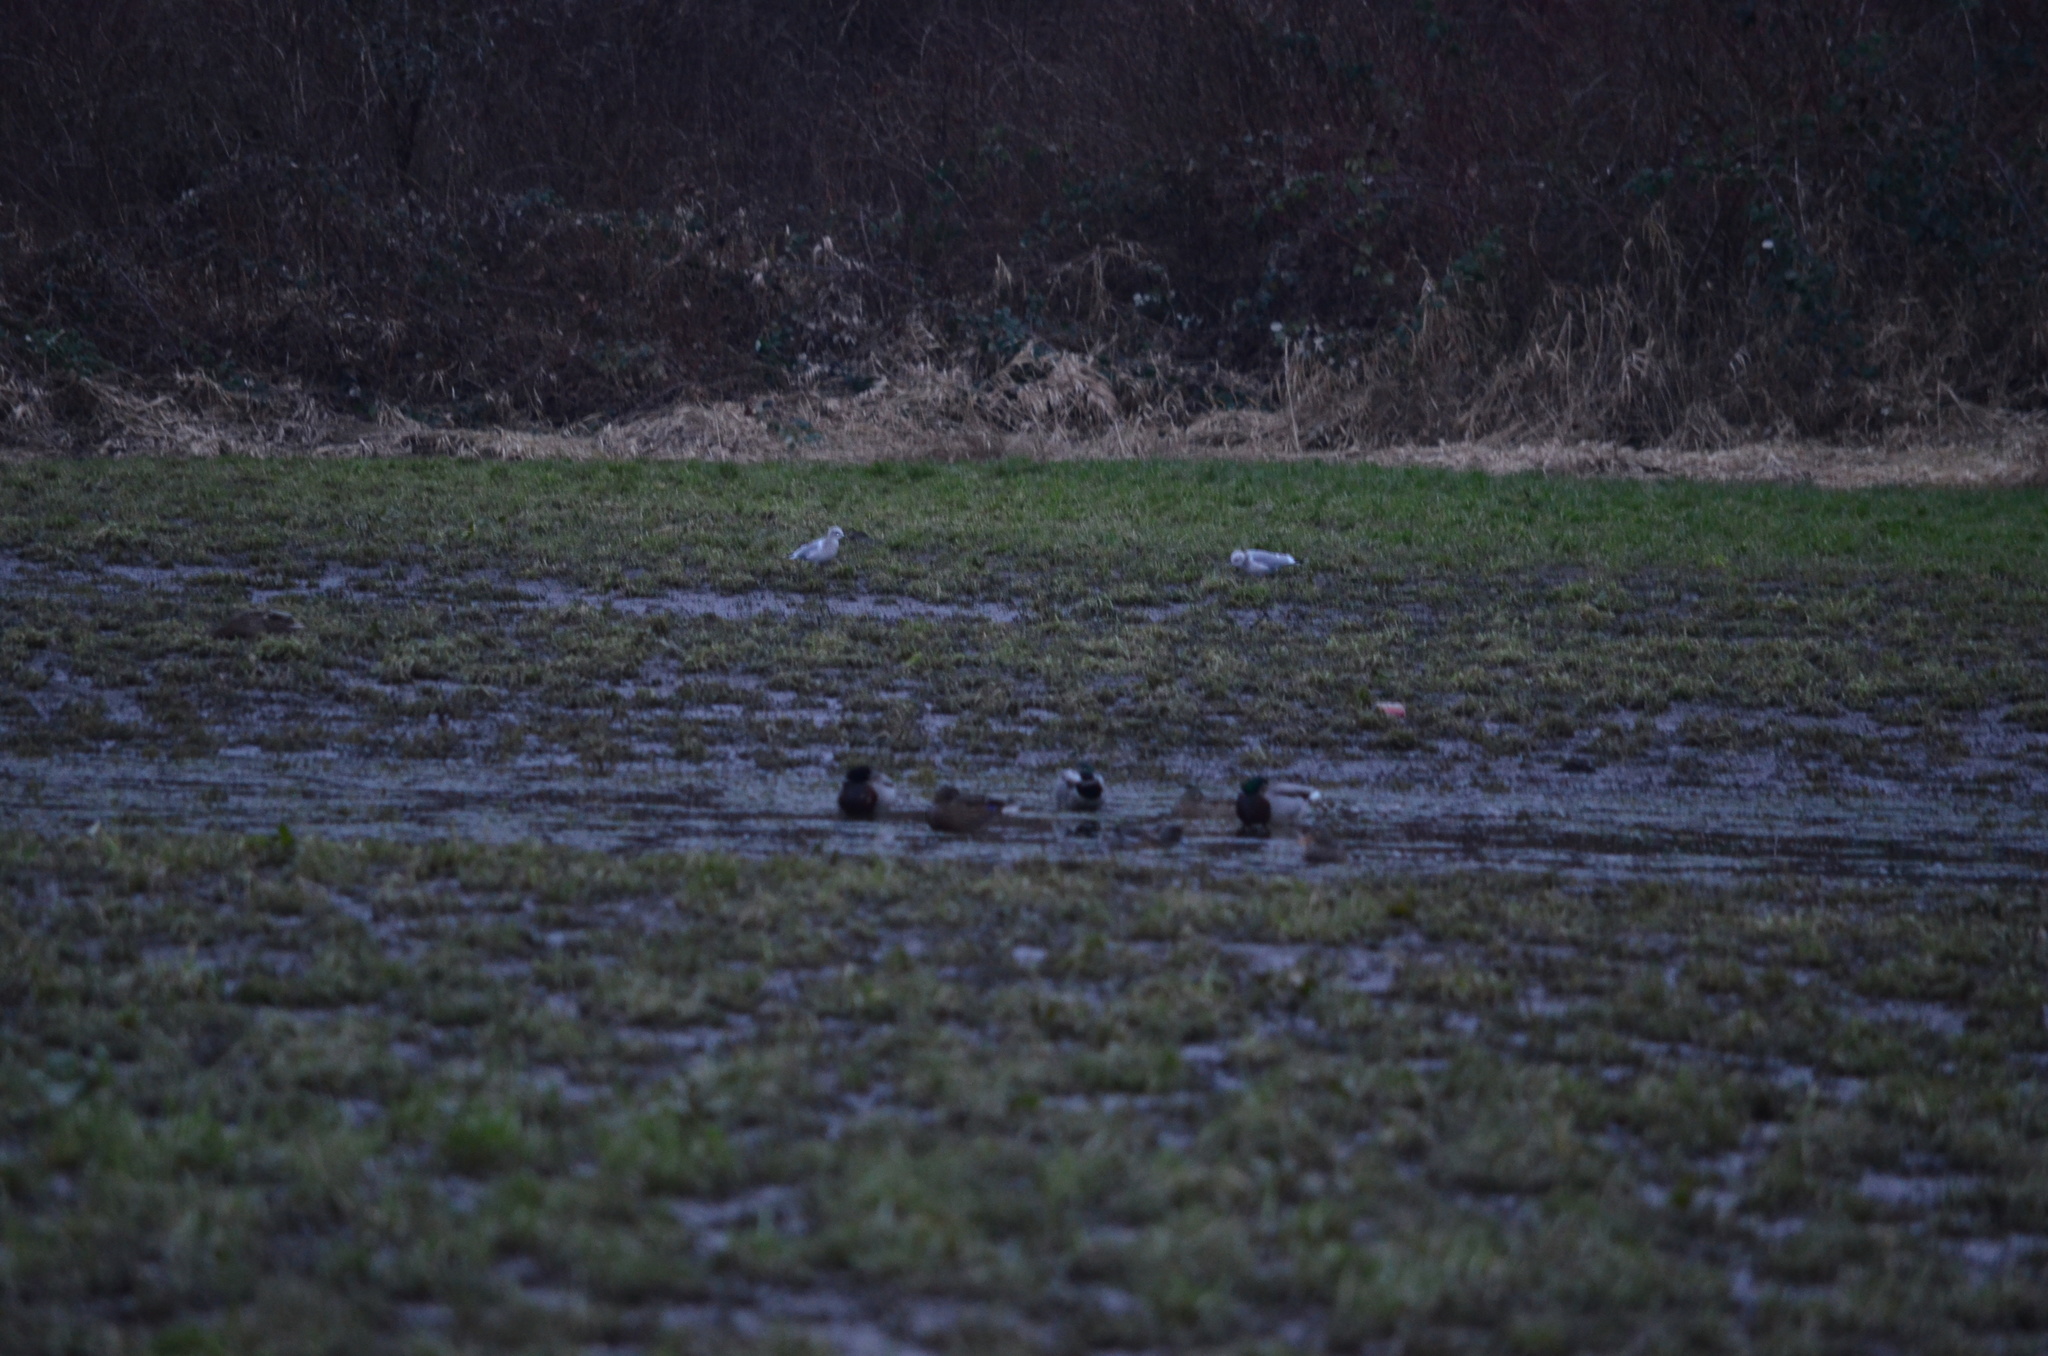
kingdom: Animalia
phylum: Chordata
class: Aves
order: Anseriformes
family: Anatidae
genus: Anas
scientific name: Anas platyrhynchos
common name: Mallard
